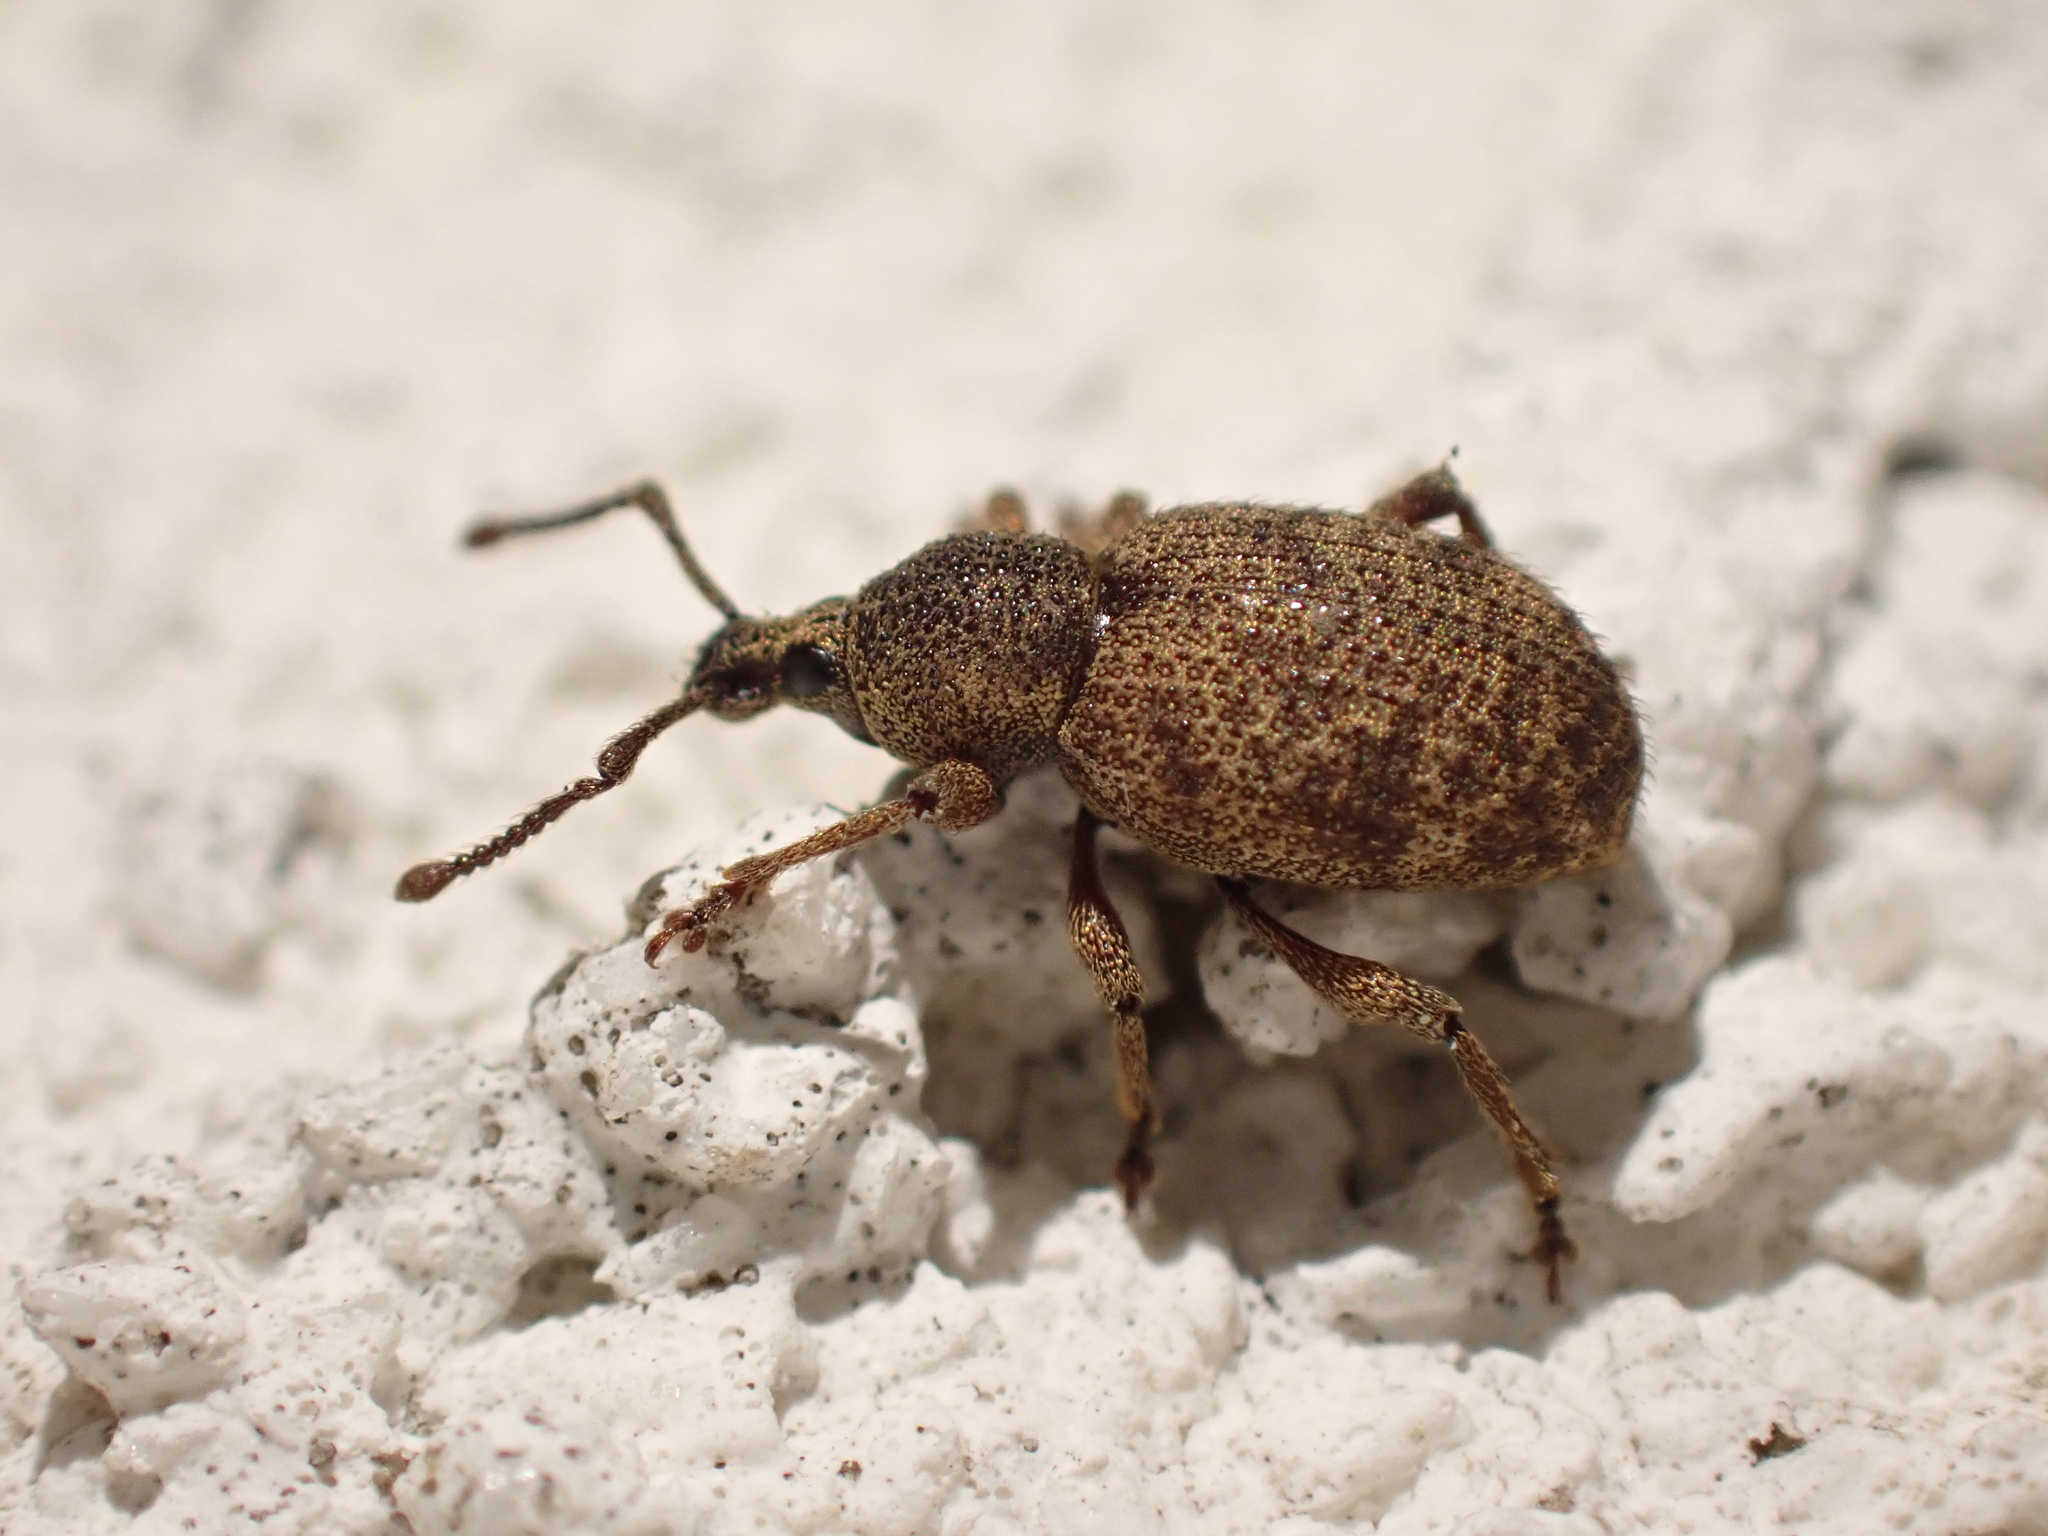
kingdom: Animalia
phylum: Arthropoda
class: Insecta
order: Coleoptera
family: Curculionidae
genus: Otiorhynchus
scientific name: Otiorhynchus singularis
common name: Clay-coloured weevil
